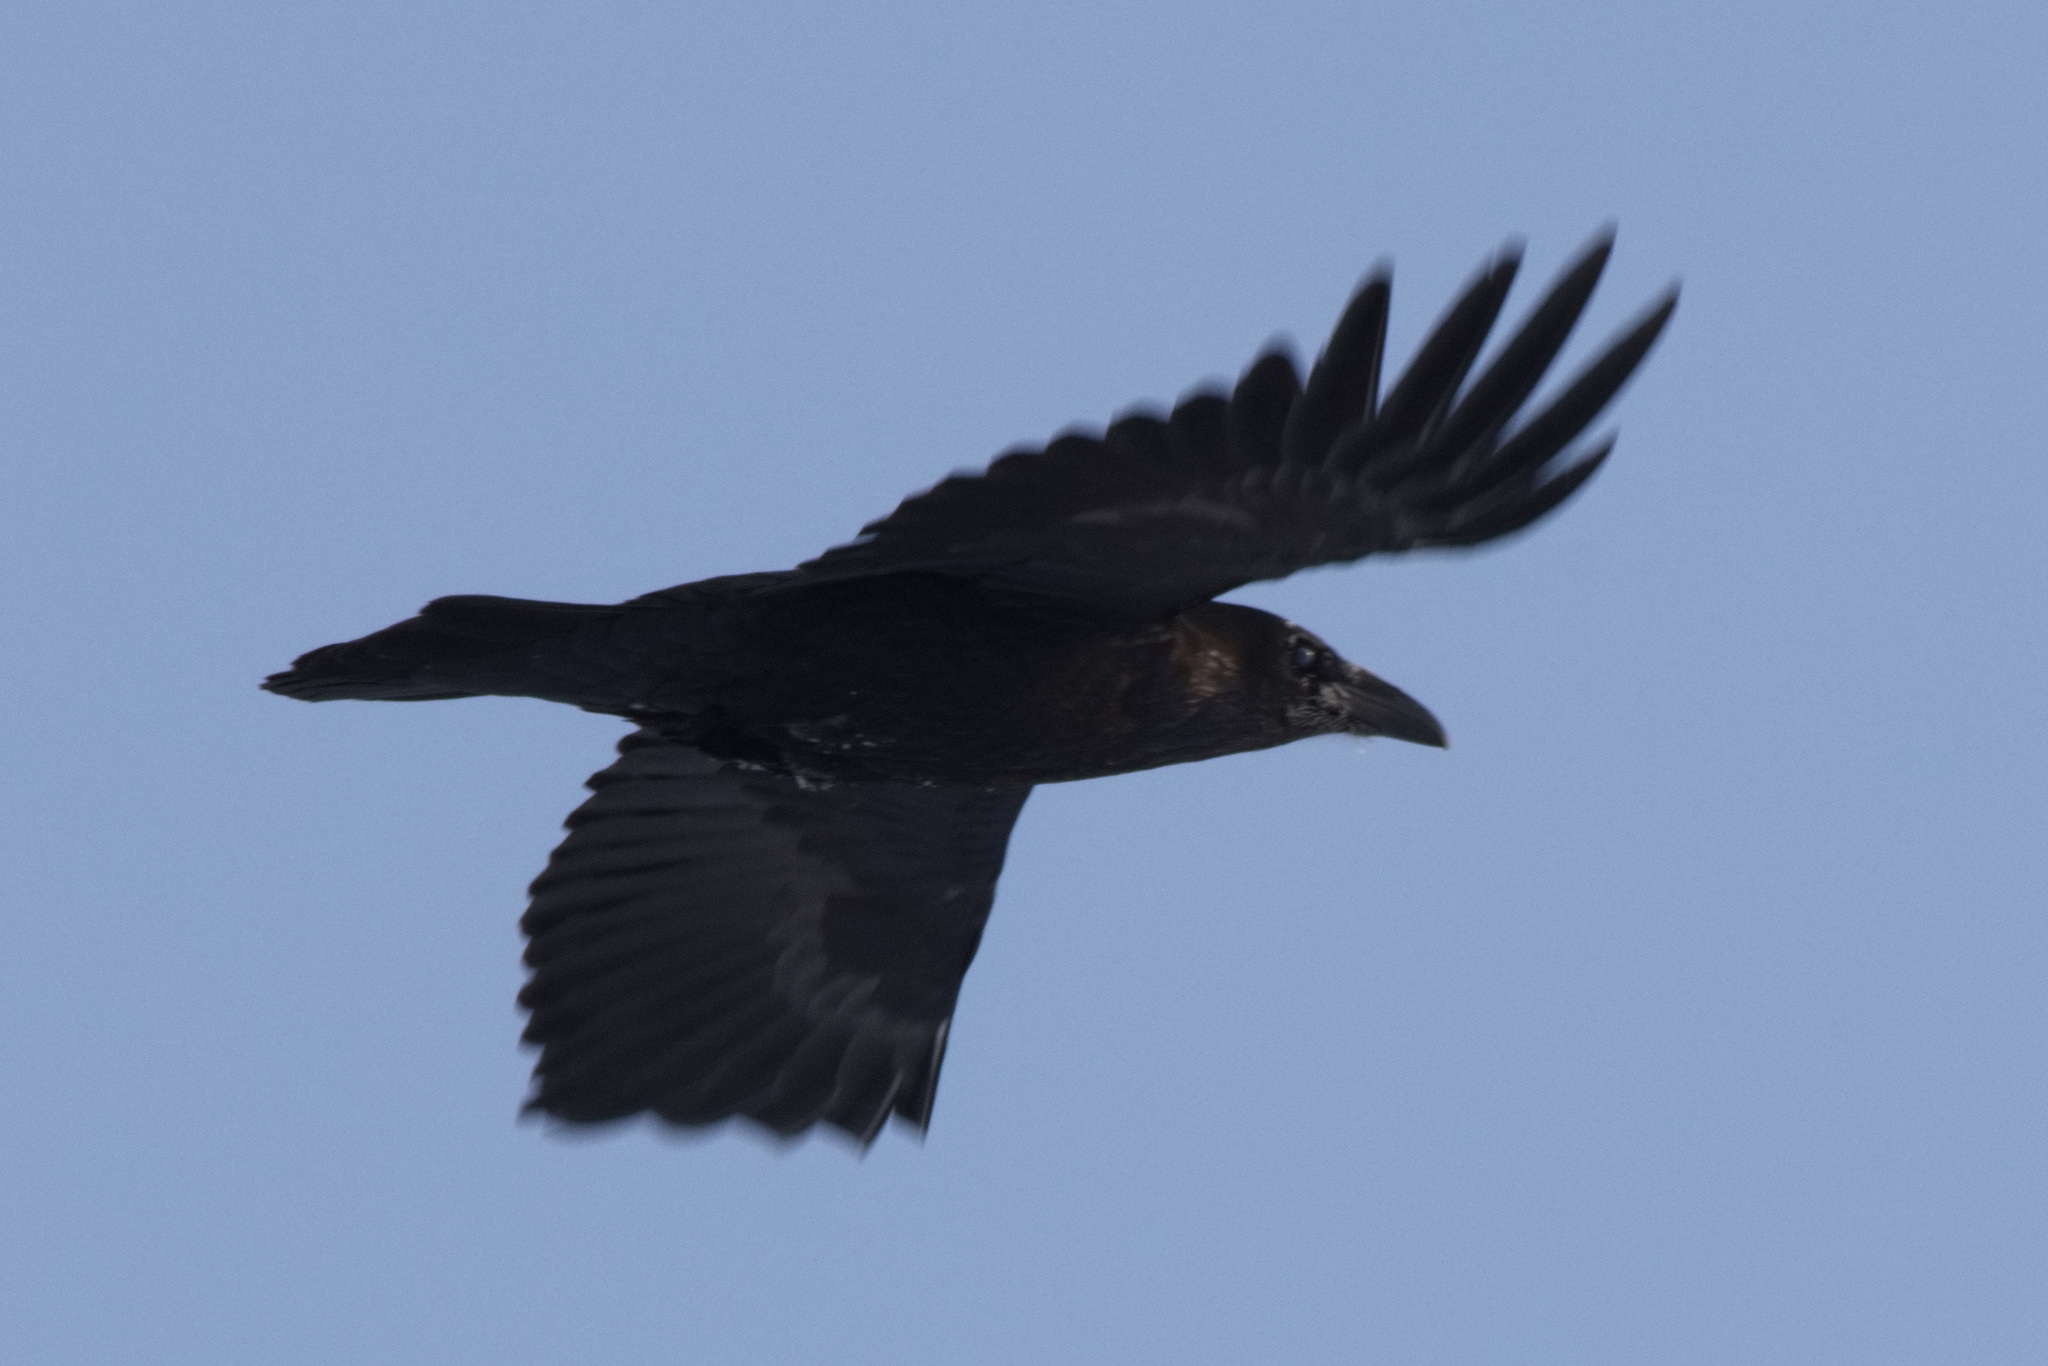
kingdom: Animalia
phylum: Chordata
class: Aves
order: Passeriformes
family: Corvidae
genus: Corvus
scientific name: Corvus corax
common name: Common raven
